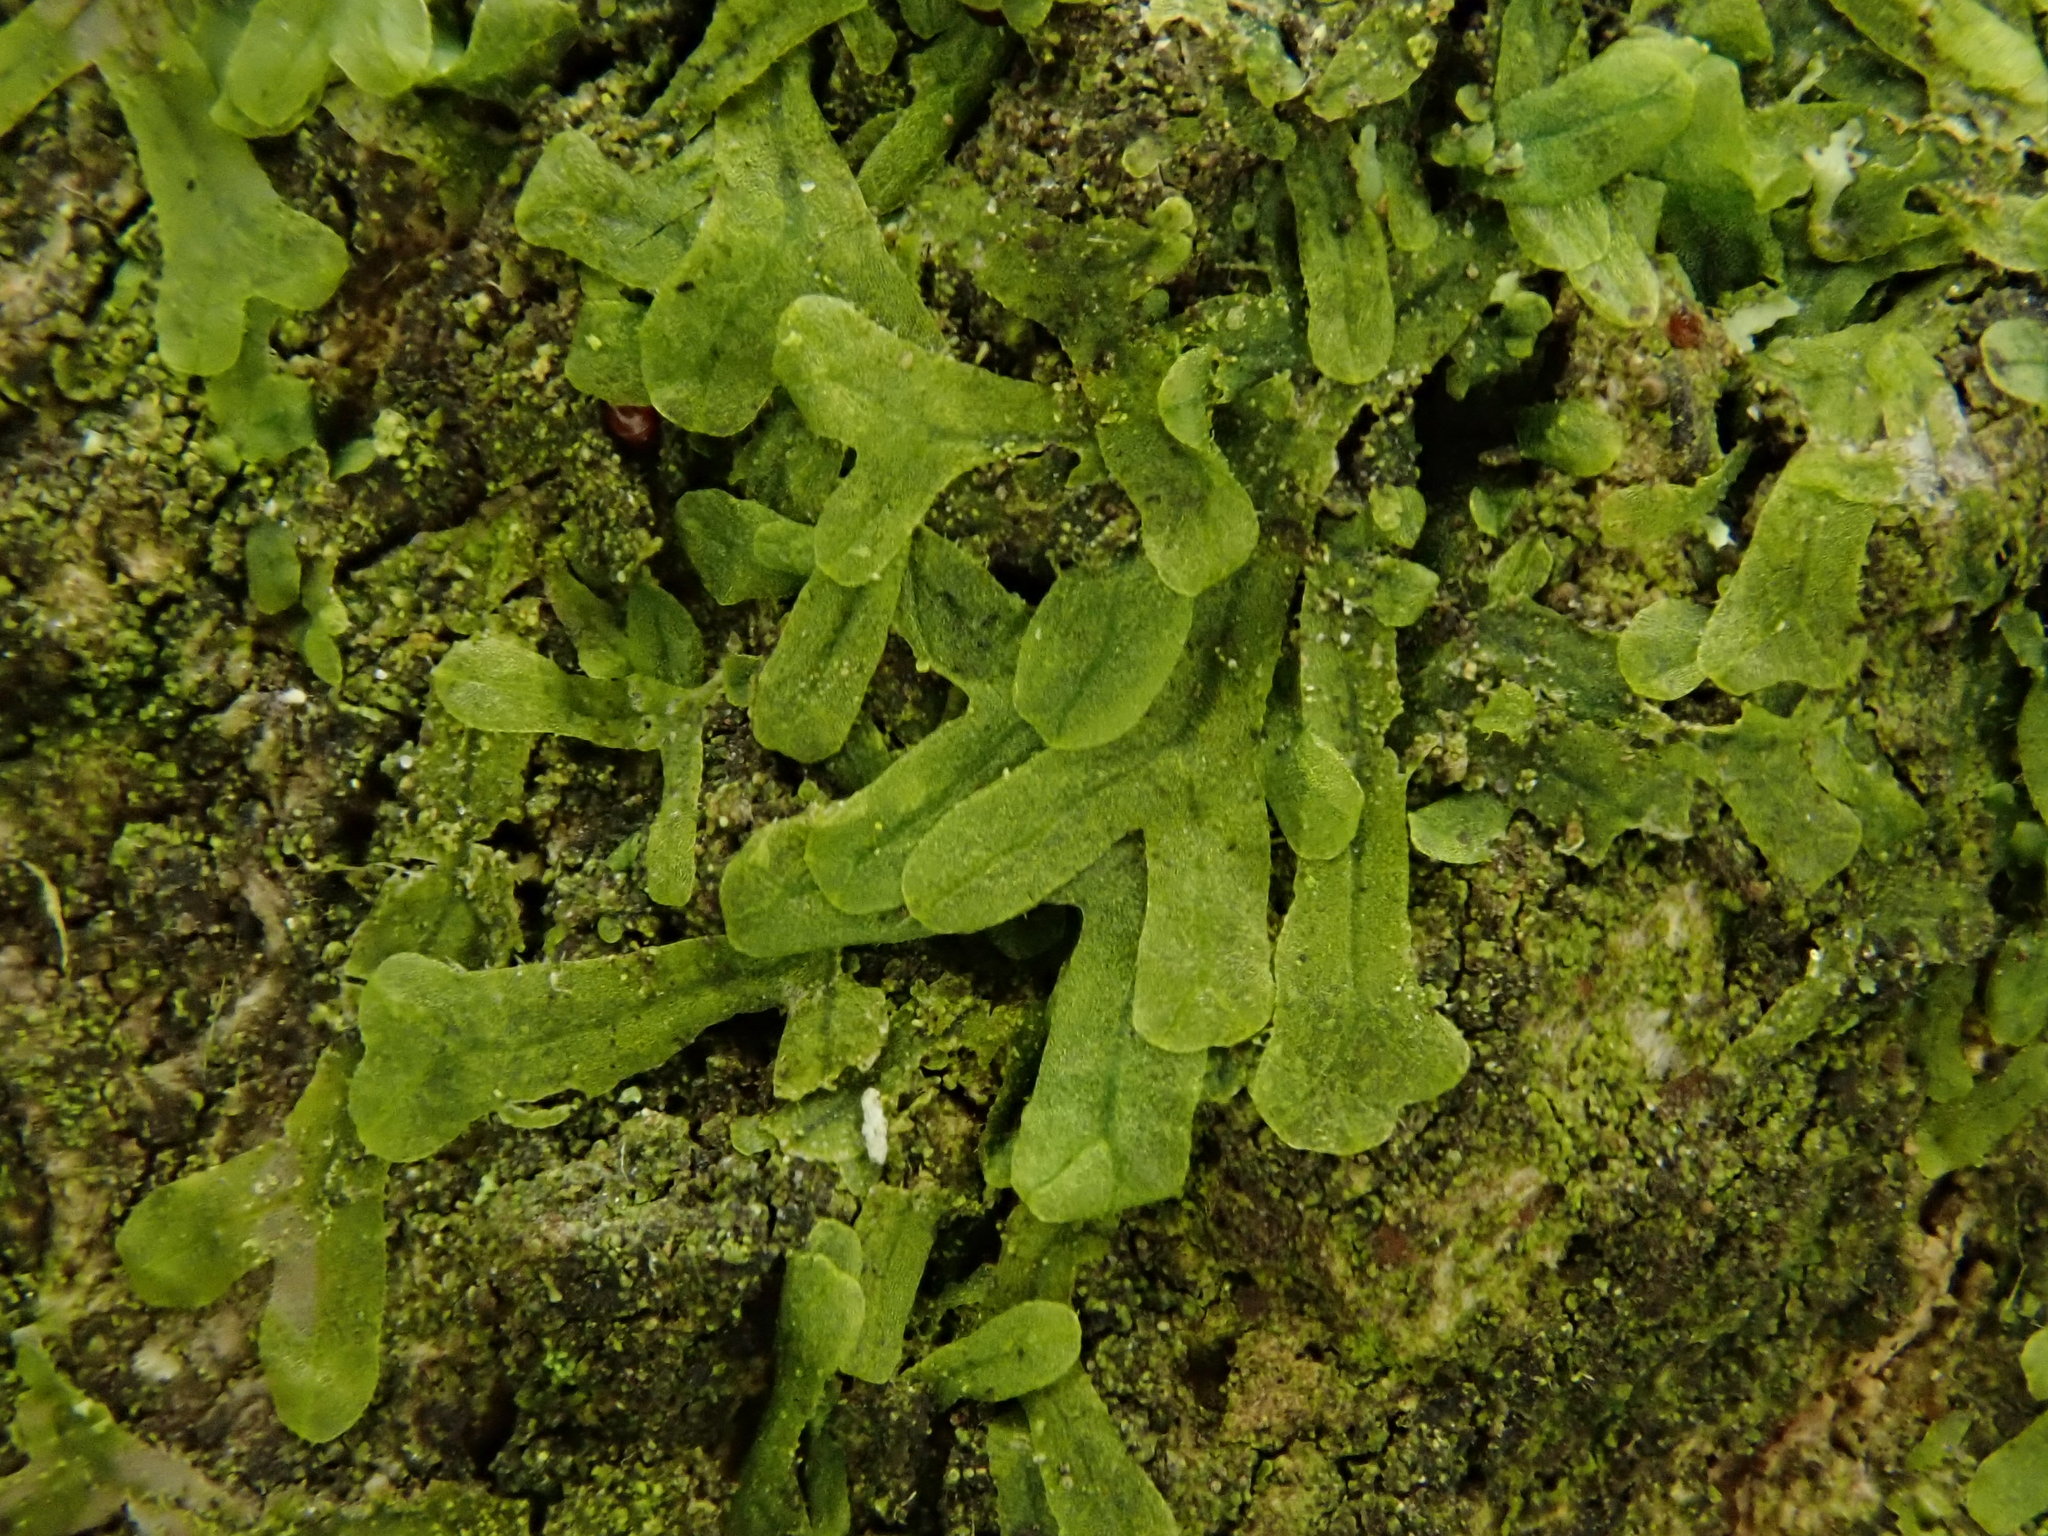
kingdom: Plantae
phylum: Marchantiophyta
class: Jungermanniopsida
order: Metzgeriales
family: Metzgeriaceae
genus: Metzgeria
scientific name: Metzgeria furcata
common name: Forked veilwort
